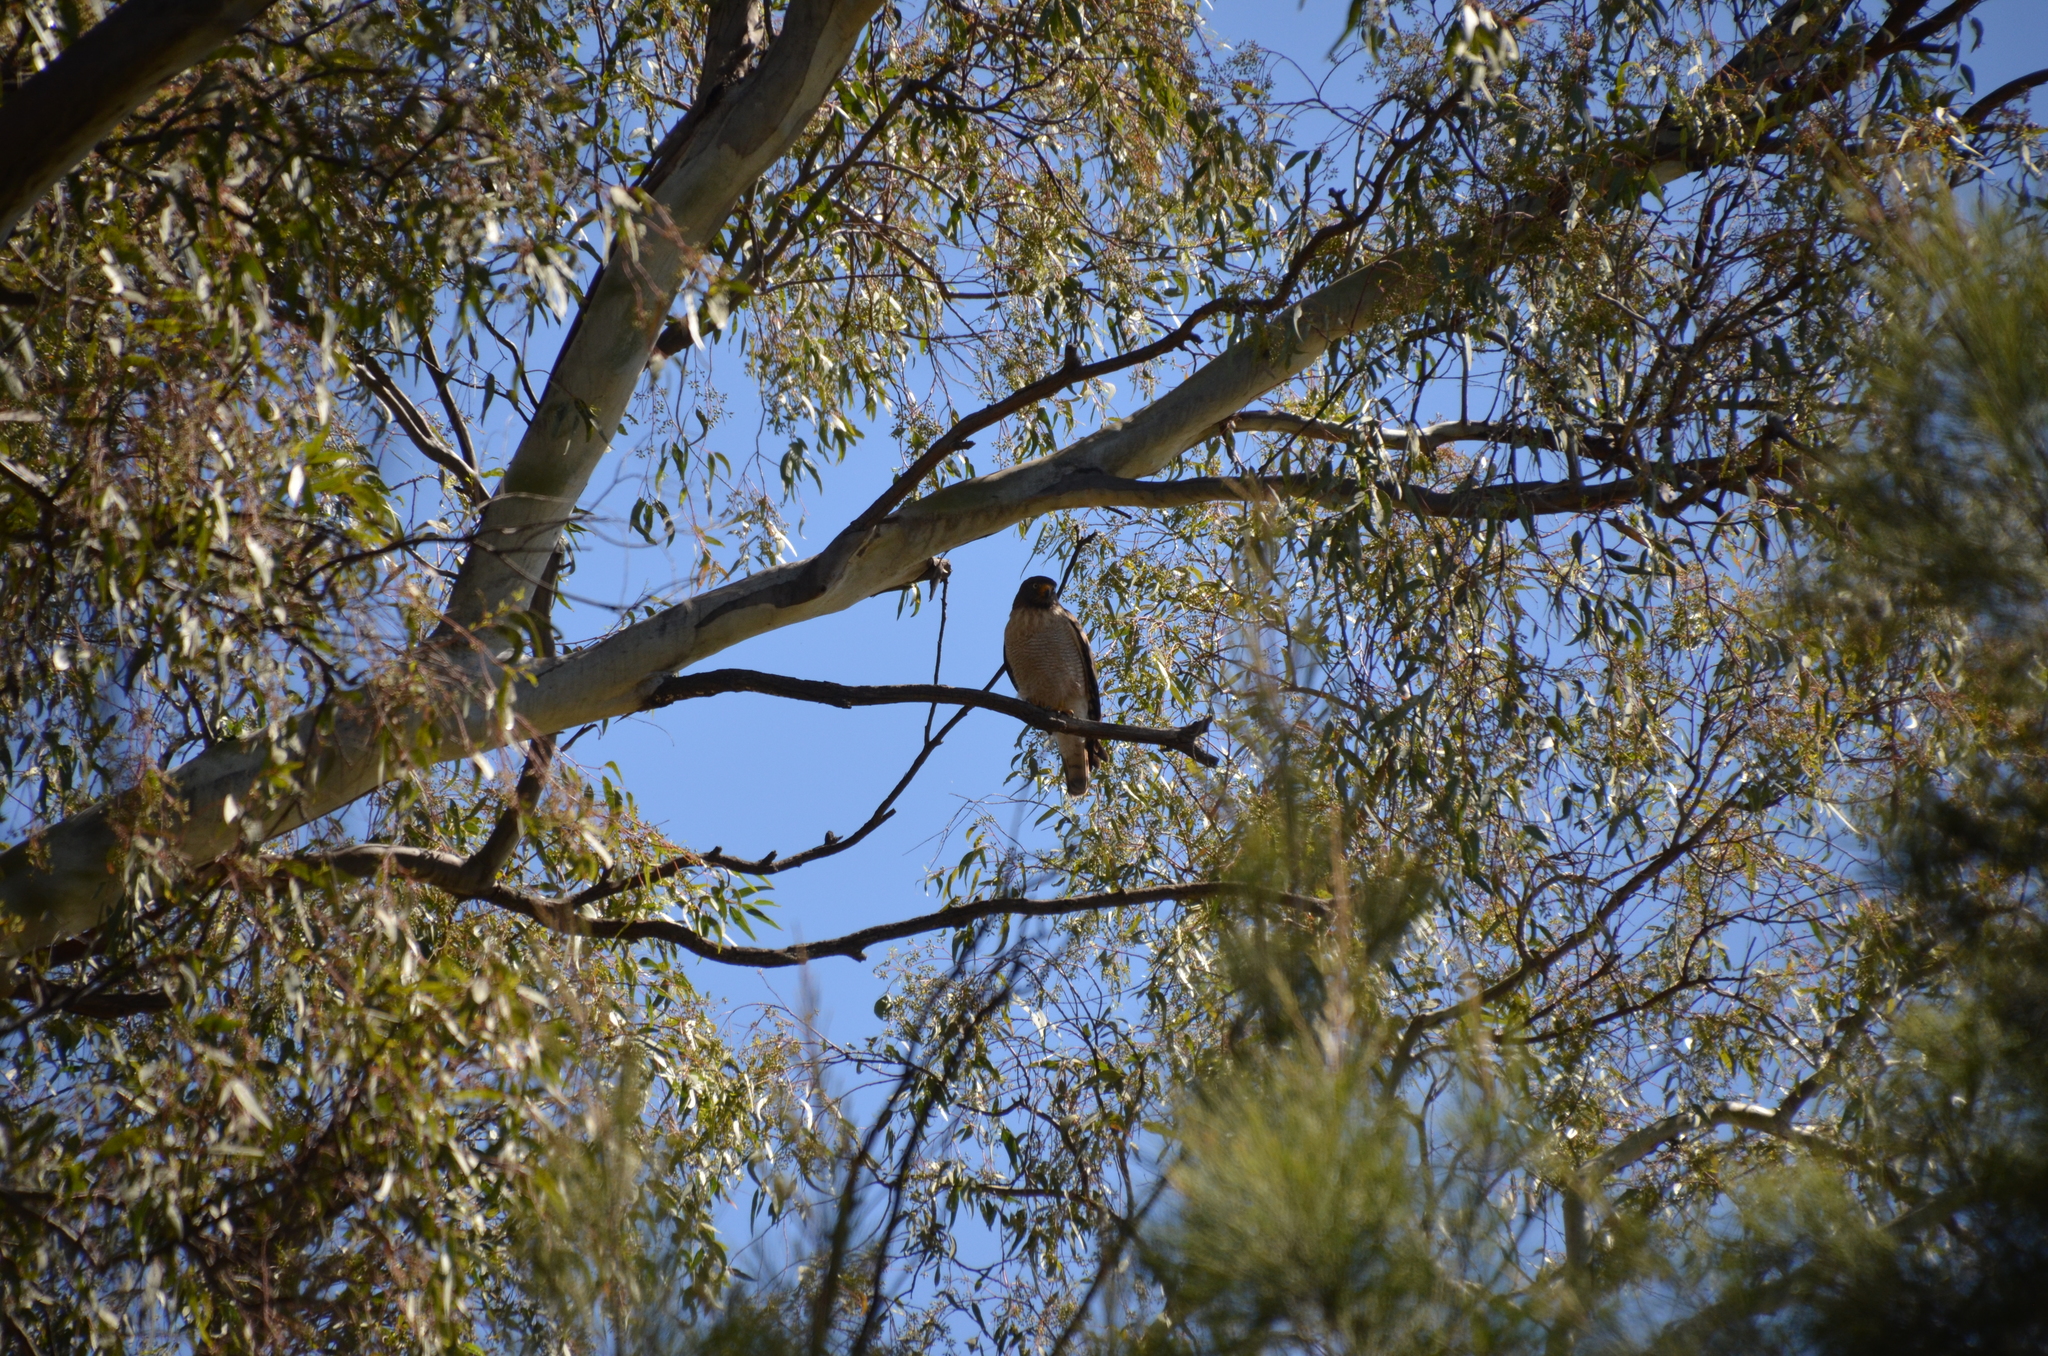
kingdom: Animalia
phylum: Chordata
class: Aves
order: Accipitriformes
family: Accipitridae
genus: Rupornis
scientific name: Rupornis magnirostris
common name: Roadside hawk
